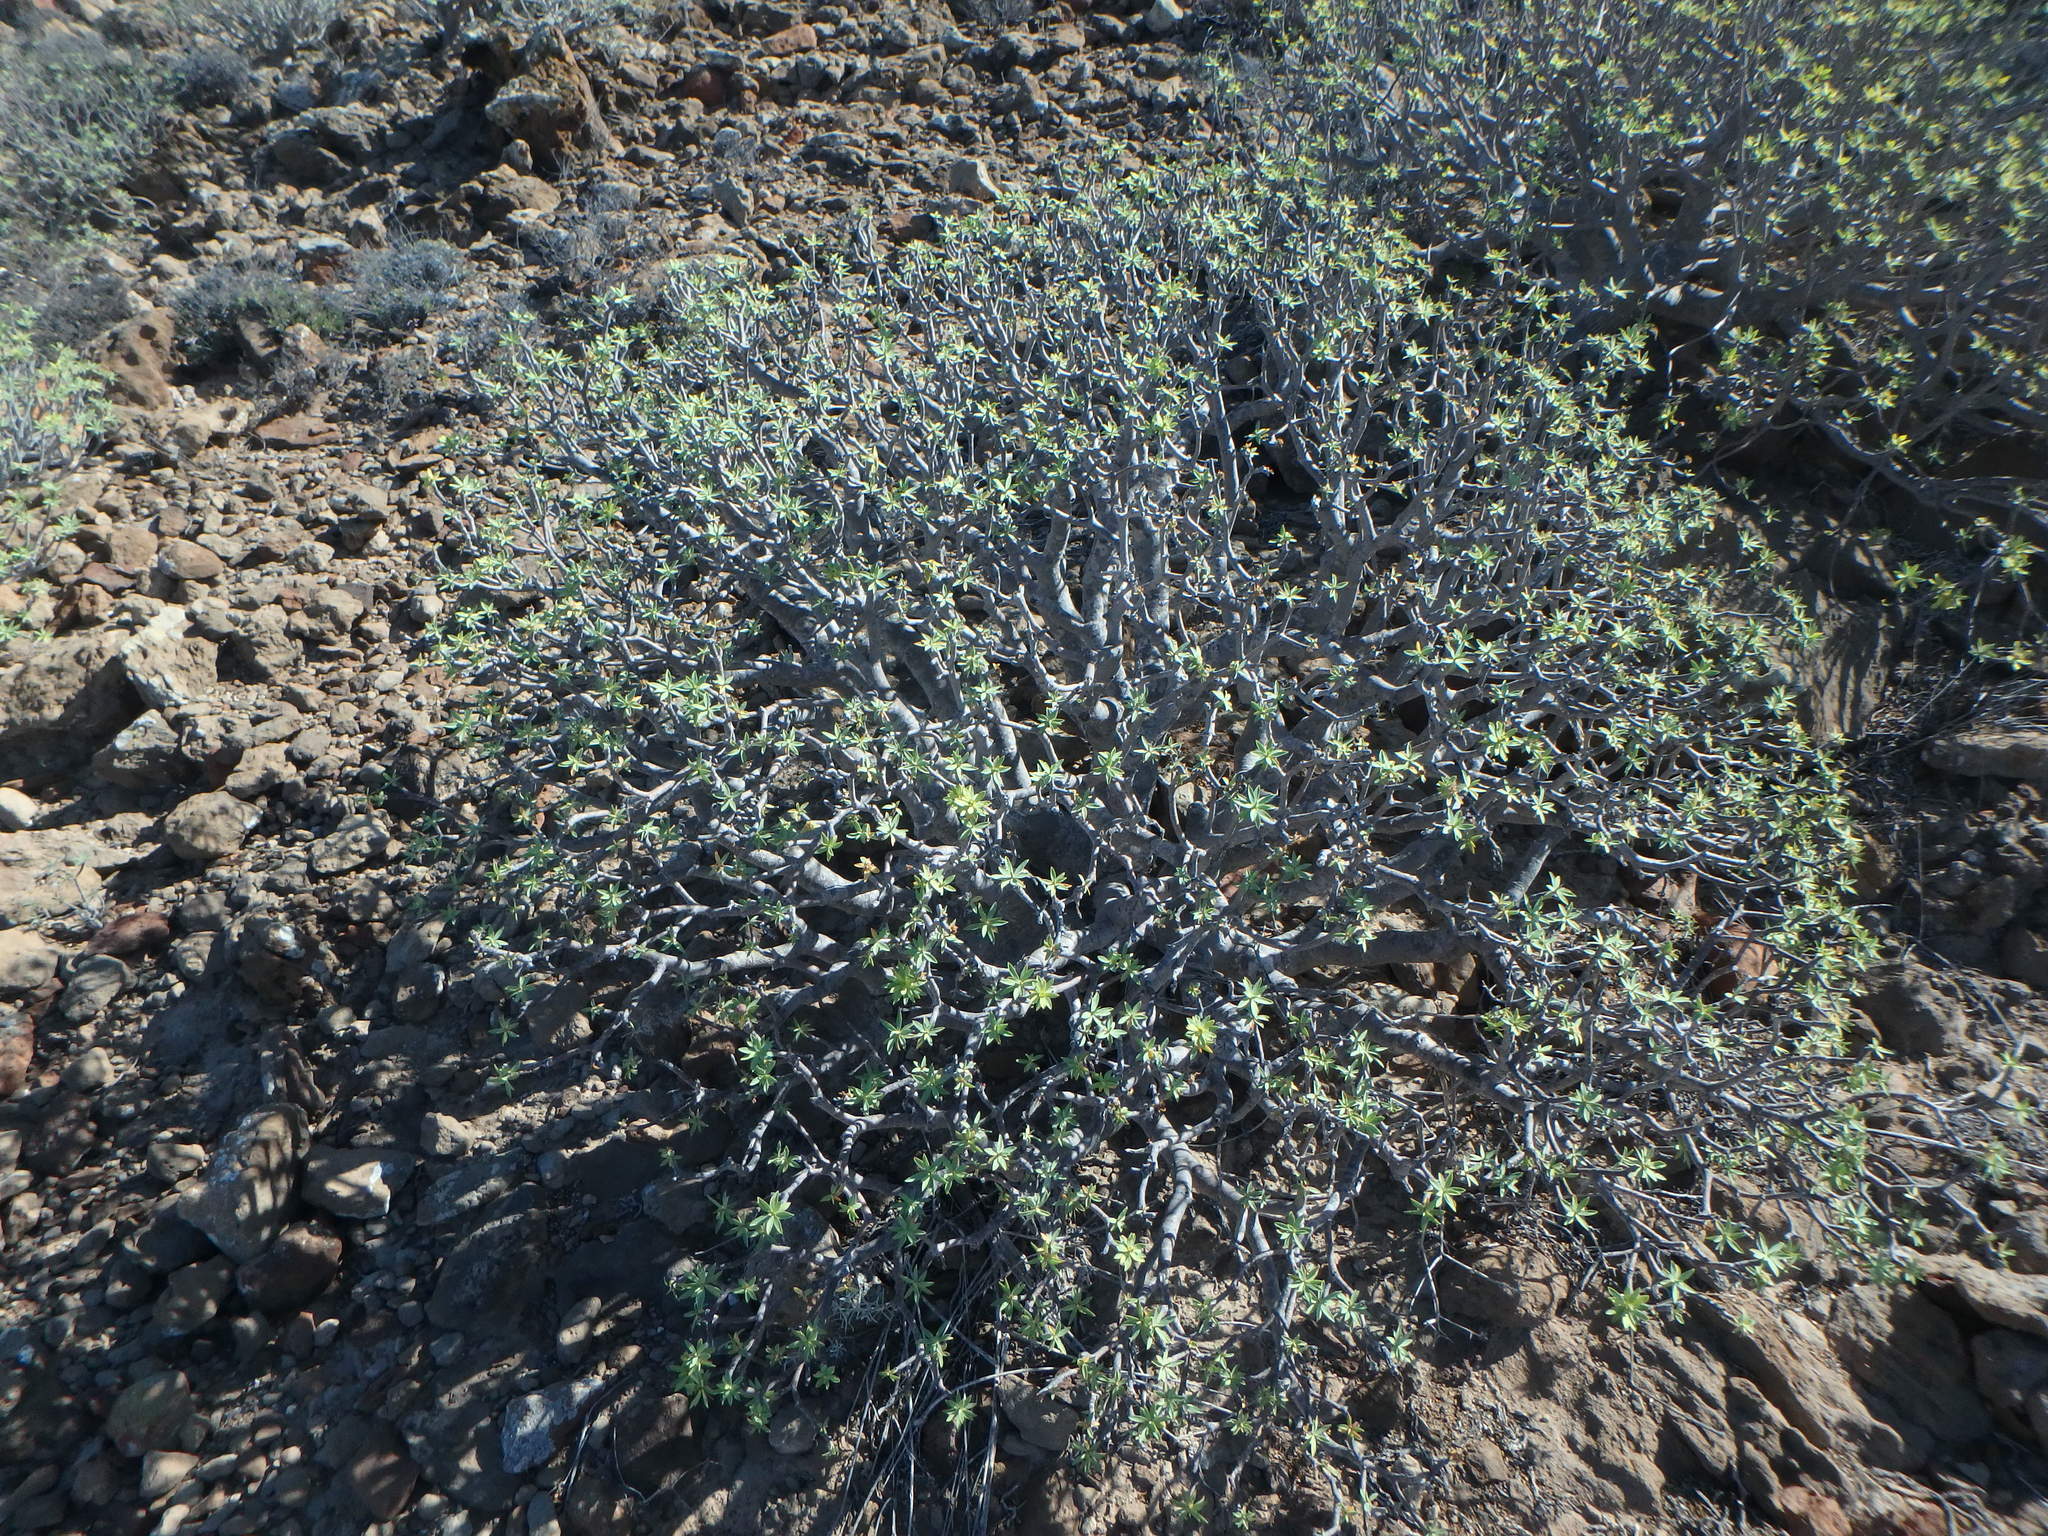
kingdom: Plantae
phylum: Tracheophyta
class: Magnoliopsida
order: Malpighiales
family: Euphorbiaceae
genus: Euphorbia
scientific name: Euphorbia balsamifera
